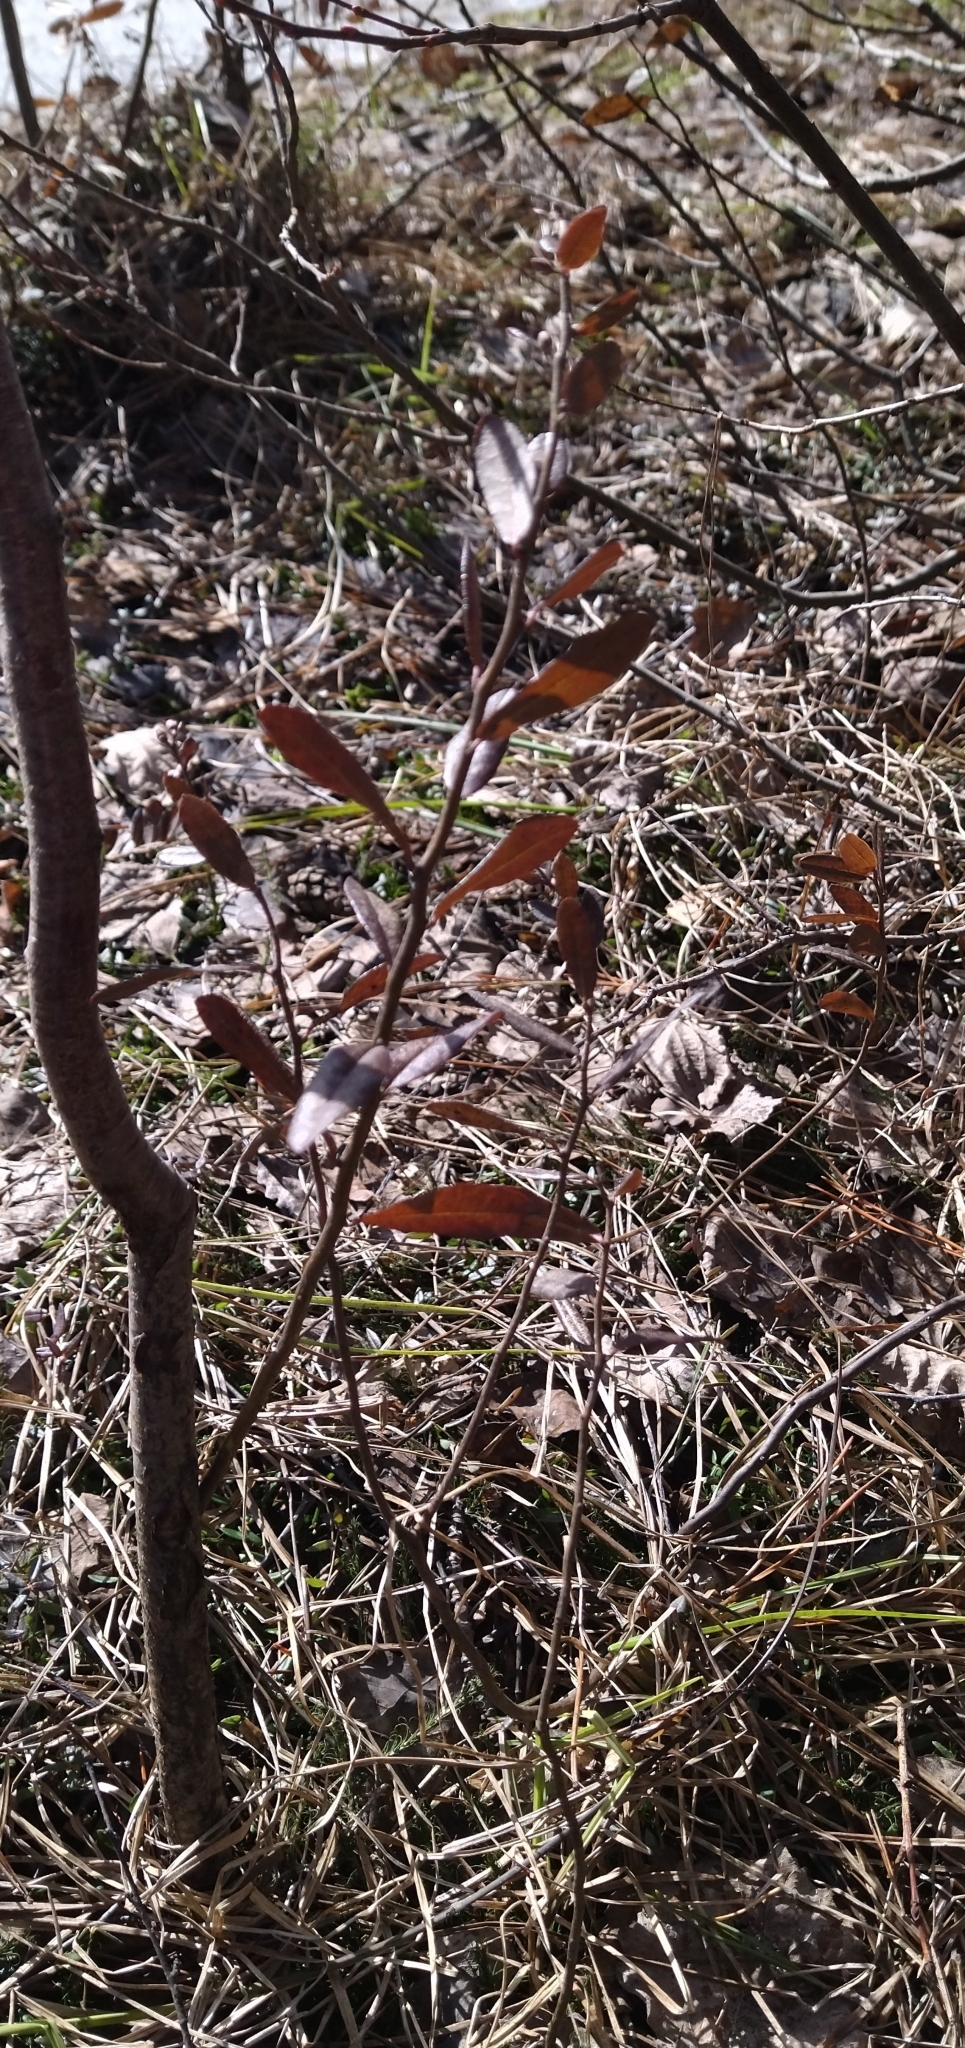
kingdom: Plantae
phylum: Tracheophyta
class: Magnoliopsida
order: Ericales
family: Ericaceae
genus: Chamaedaphne
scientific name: Chamaedaphne calyculata
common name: Leatherleaf
